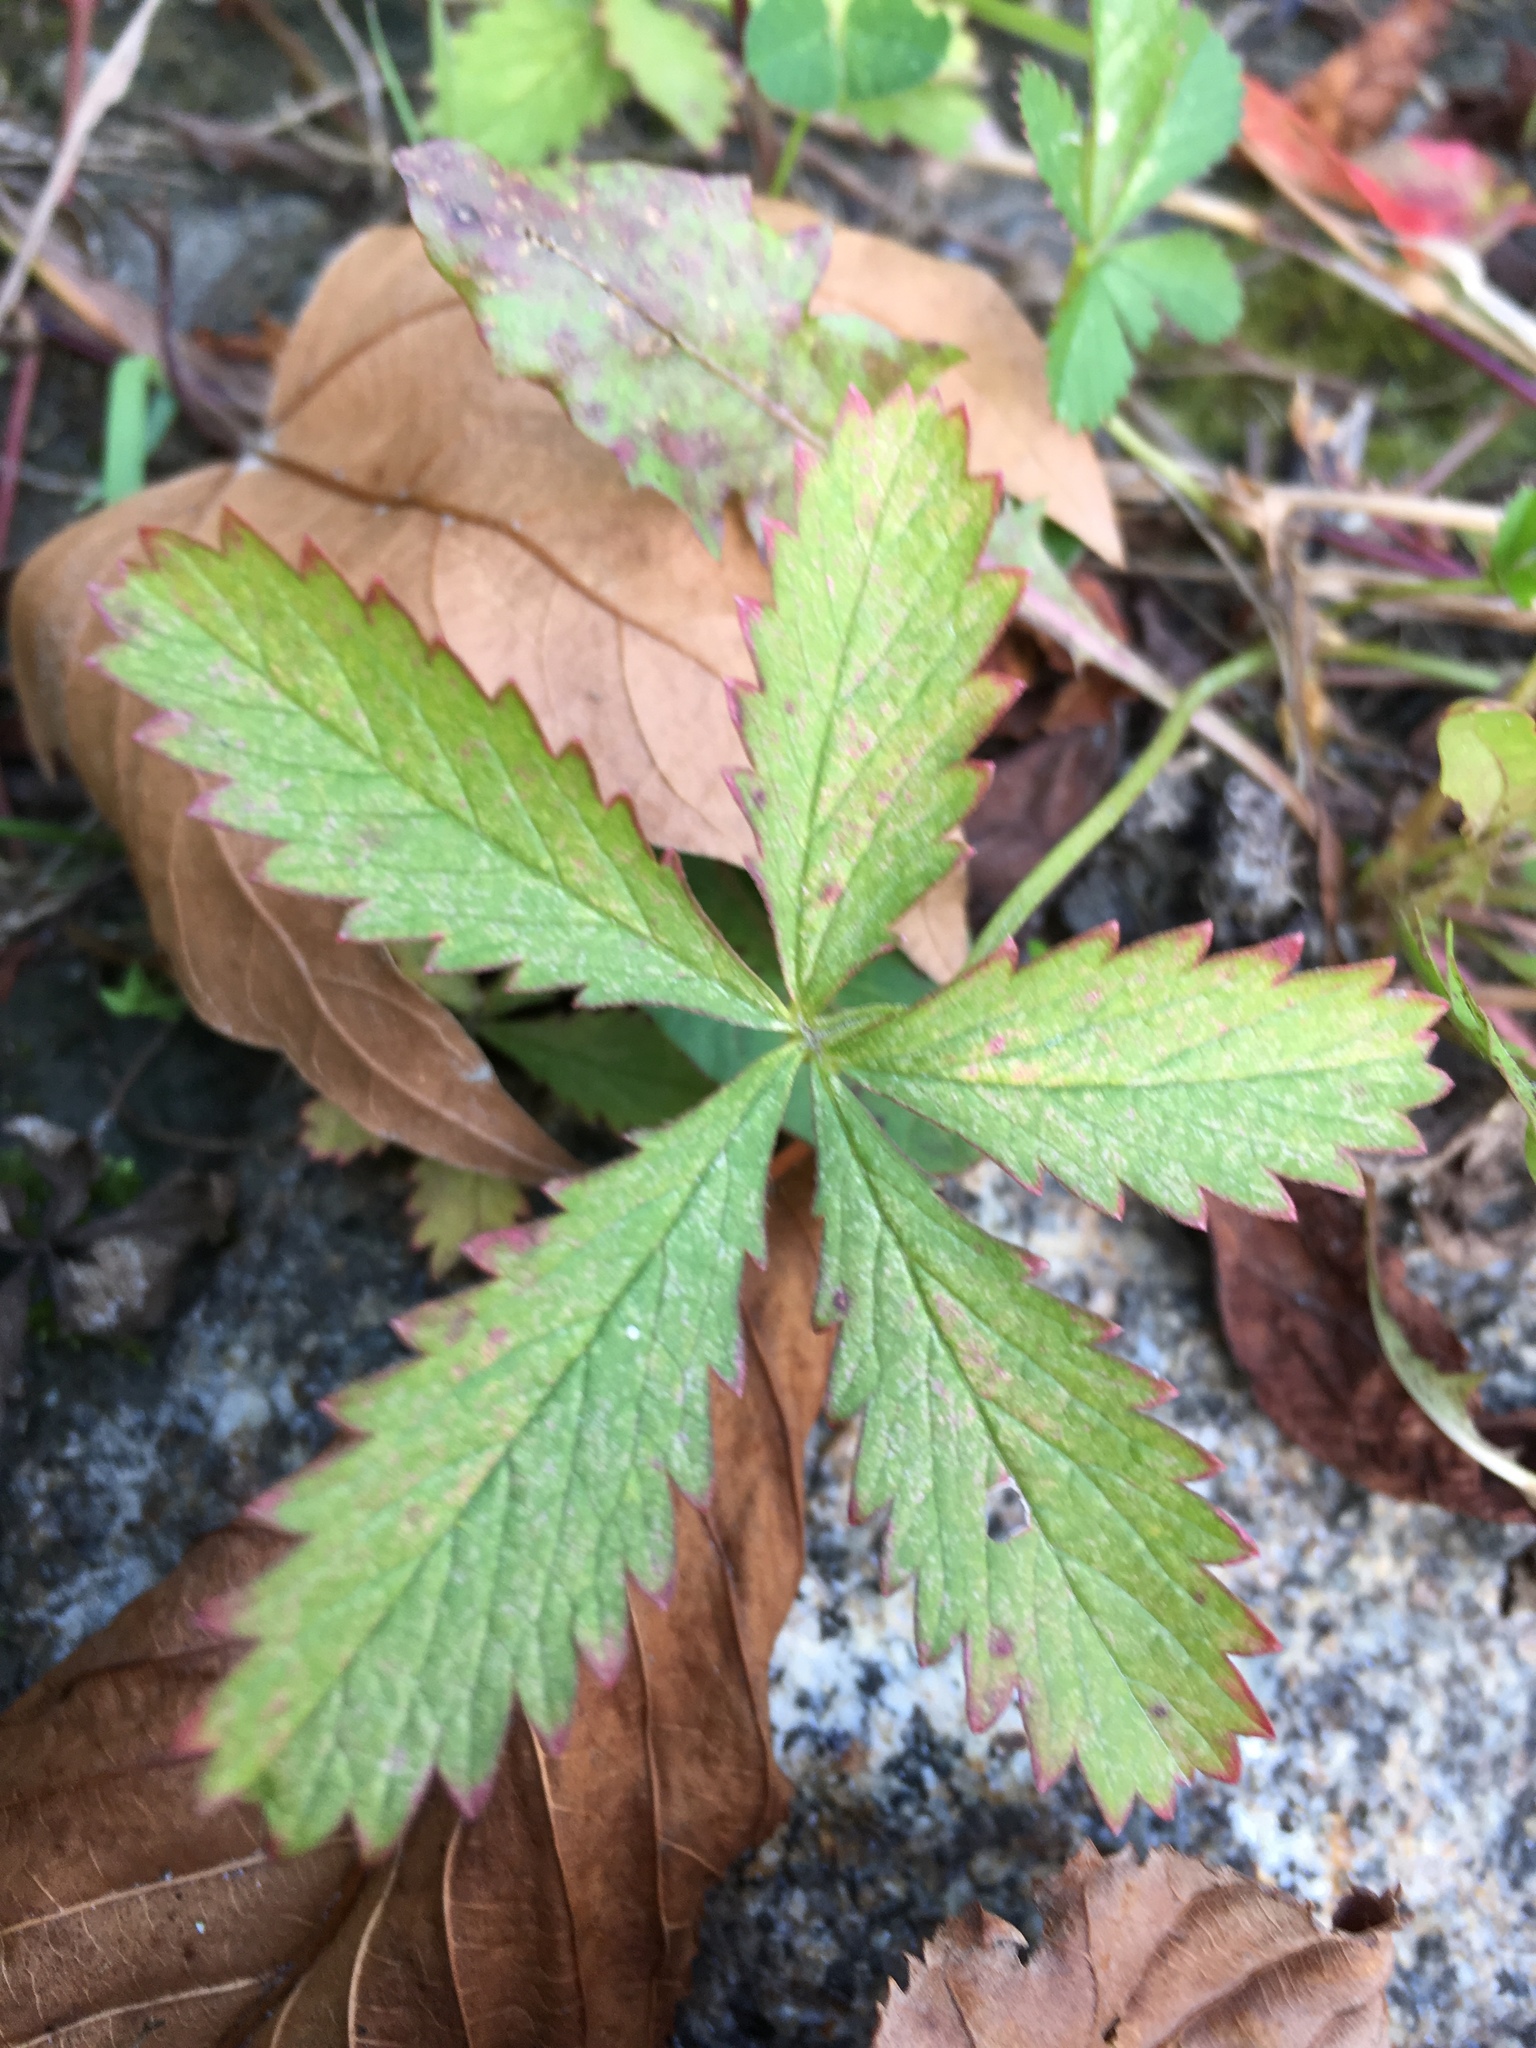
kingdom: Plantae
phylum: Tracheophyta
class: Magnoliopsida
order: Rosales
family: Rosaceae
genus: Potentilla
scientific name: Potentilla reptans
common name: Creeping cinquefoil
